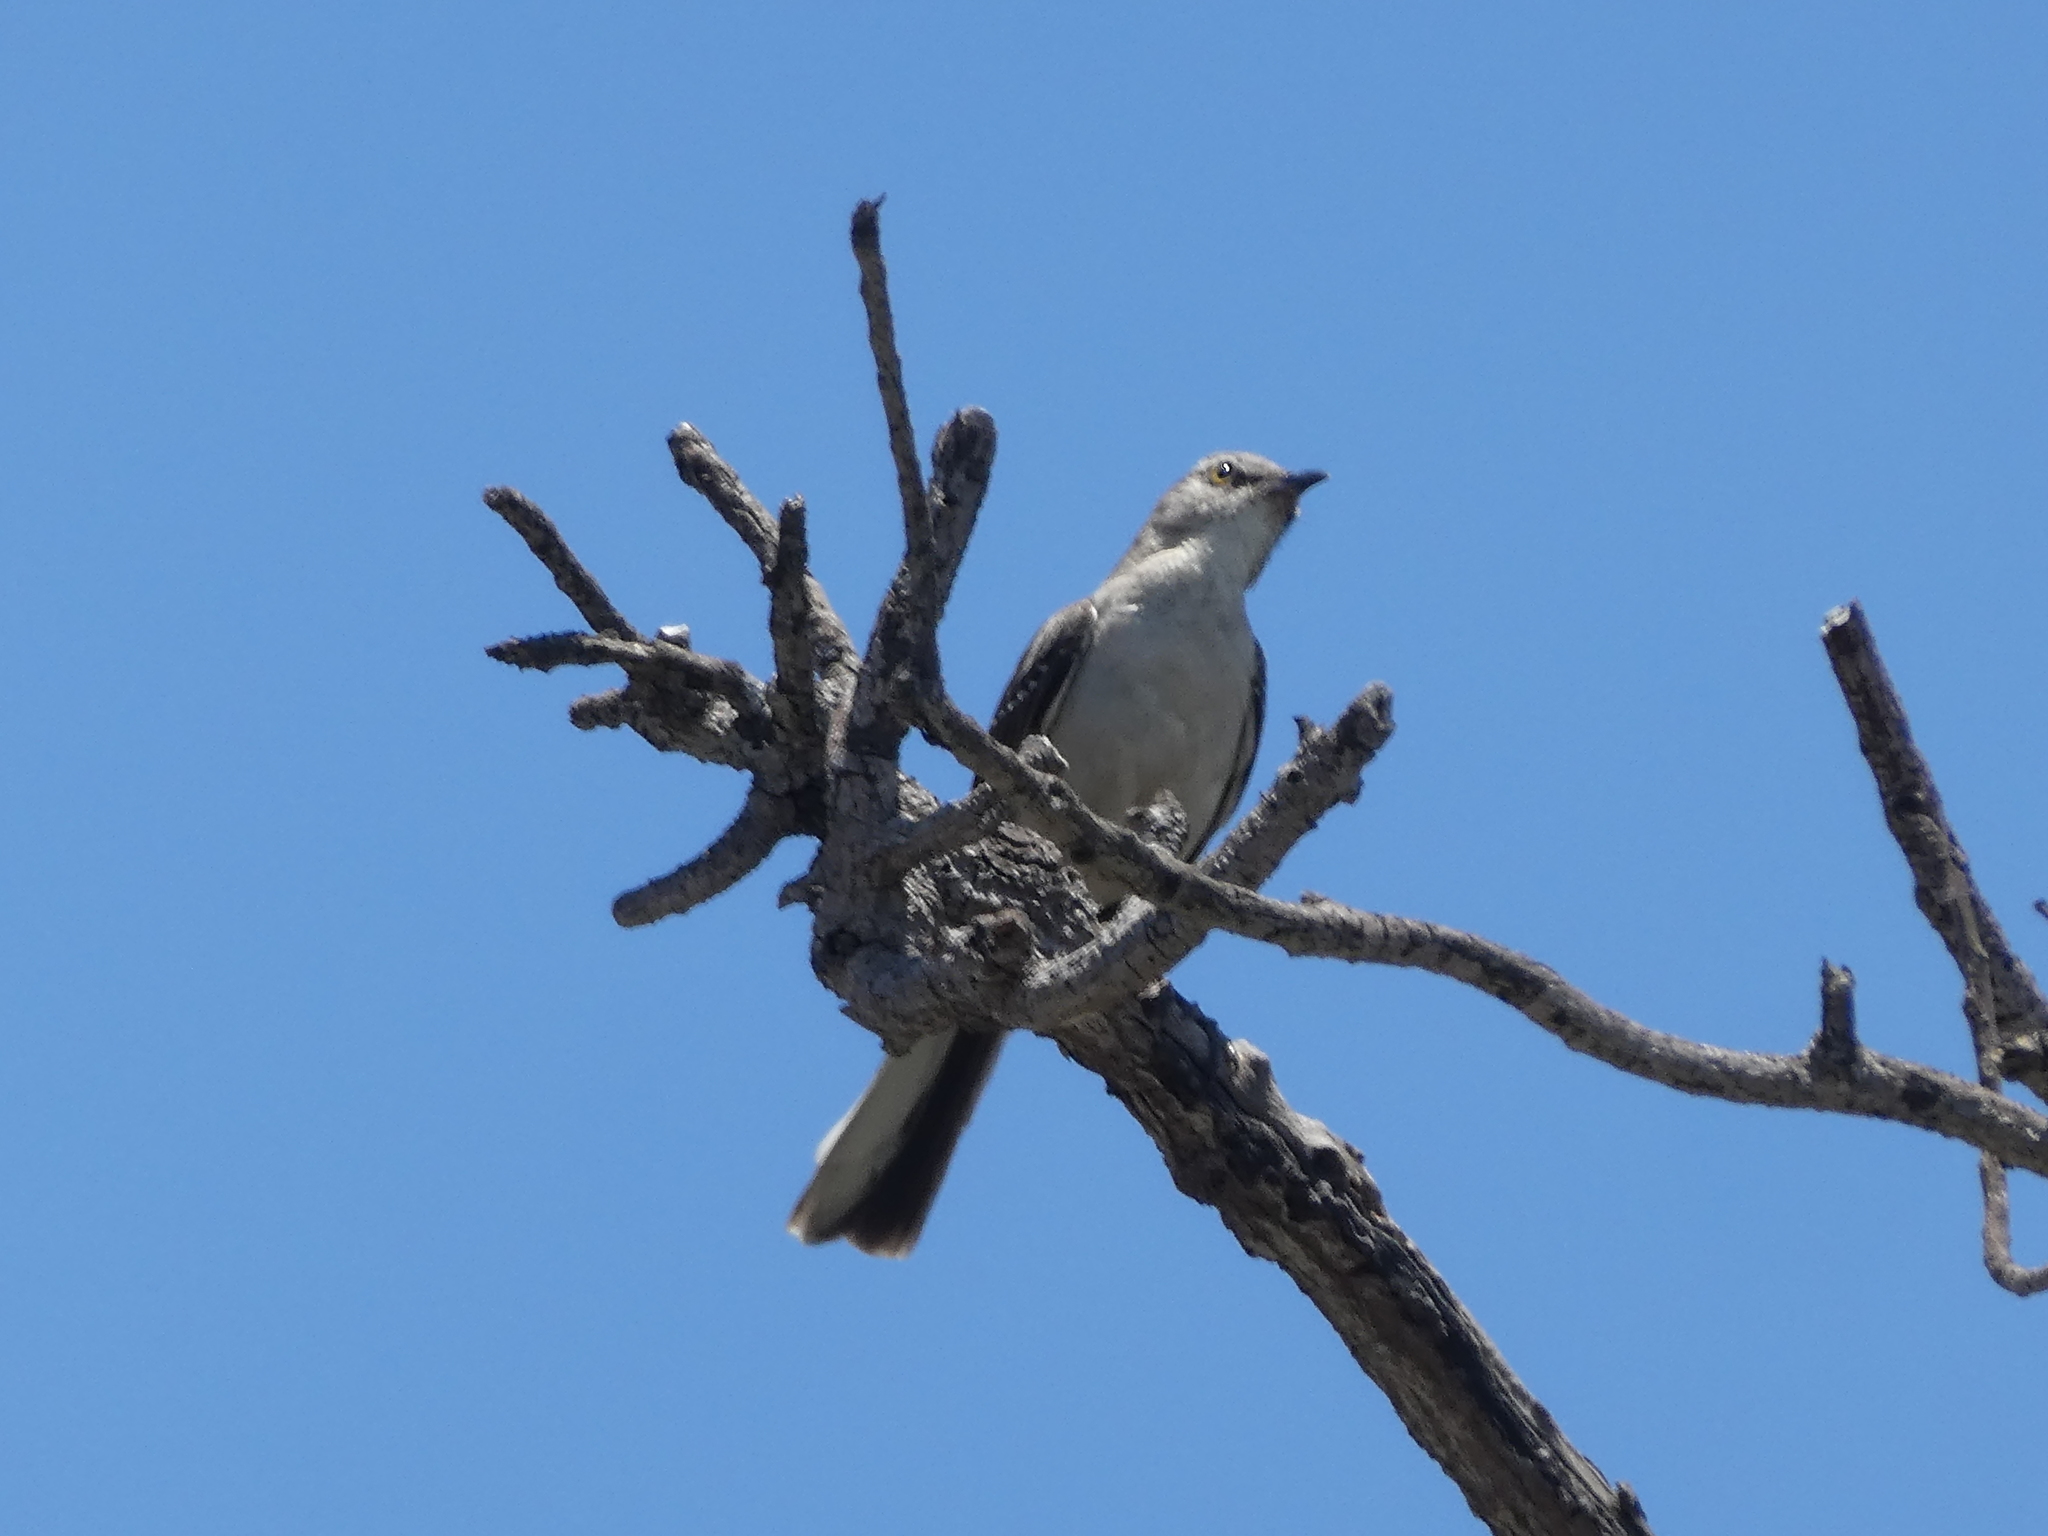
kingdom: Animalia
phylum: Chordata
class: Aves
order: Passeriformes
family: Mimidae
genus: Mimus
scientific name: Mimus polyglottos
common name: Northern mockingbird
